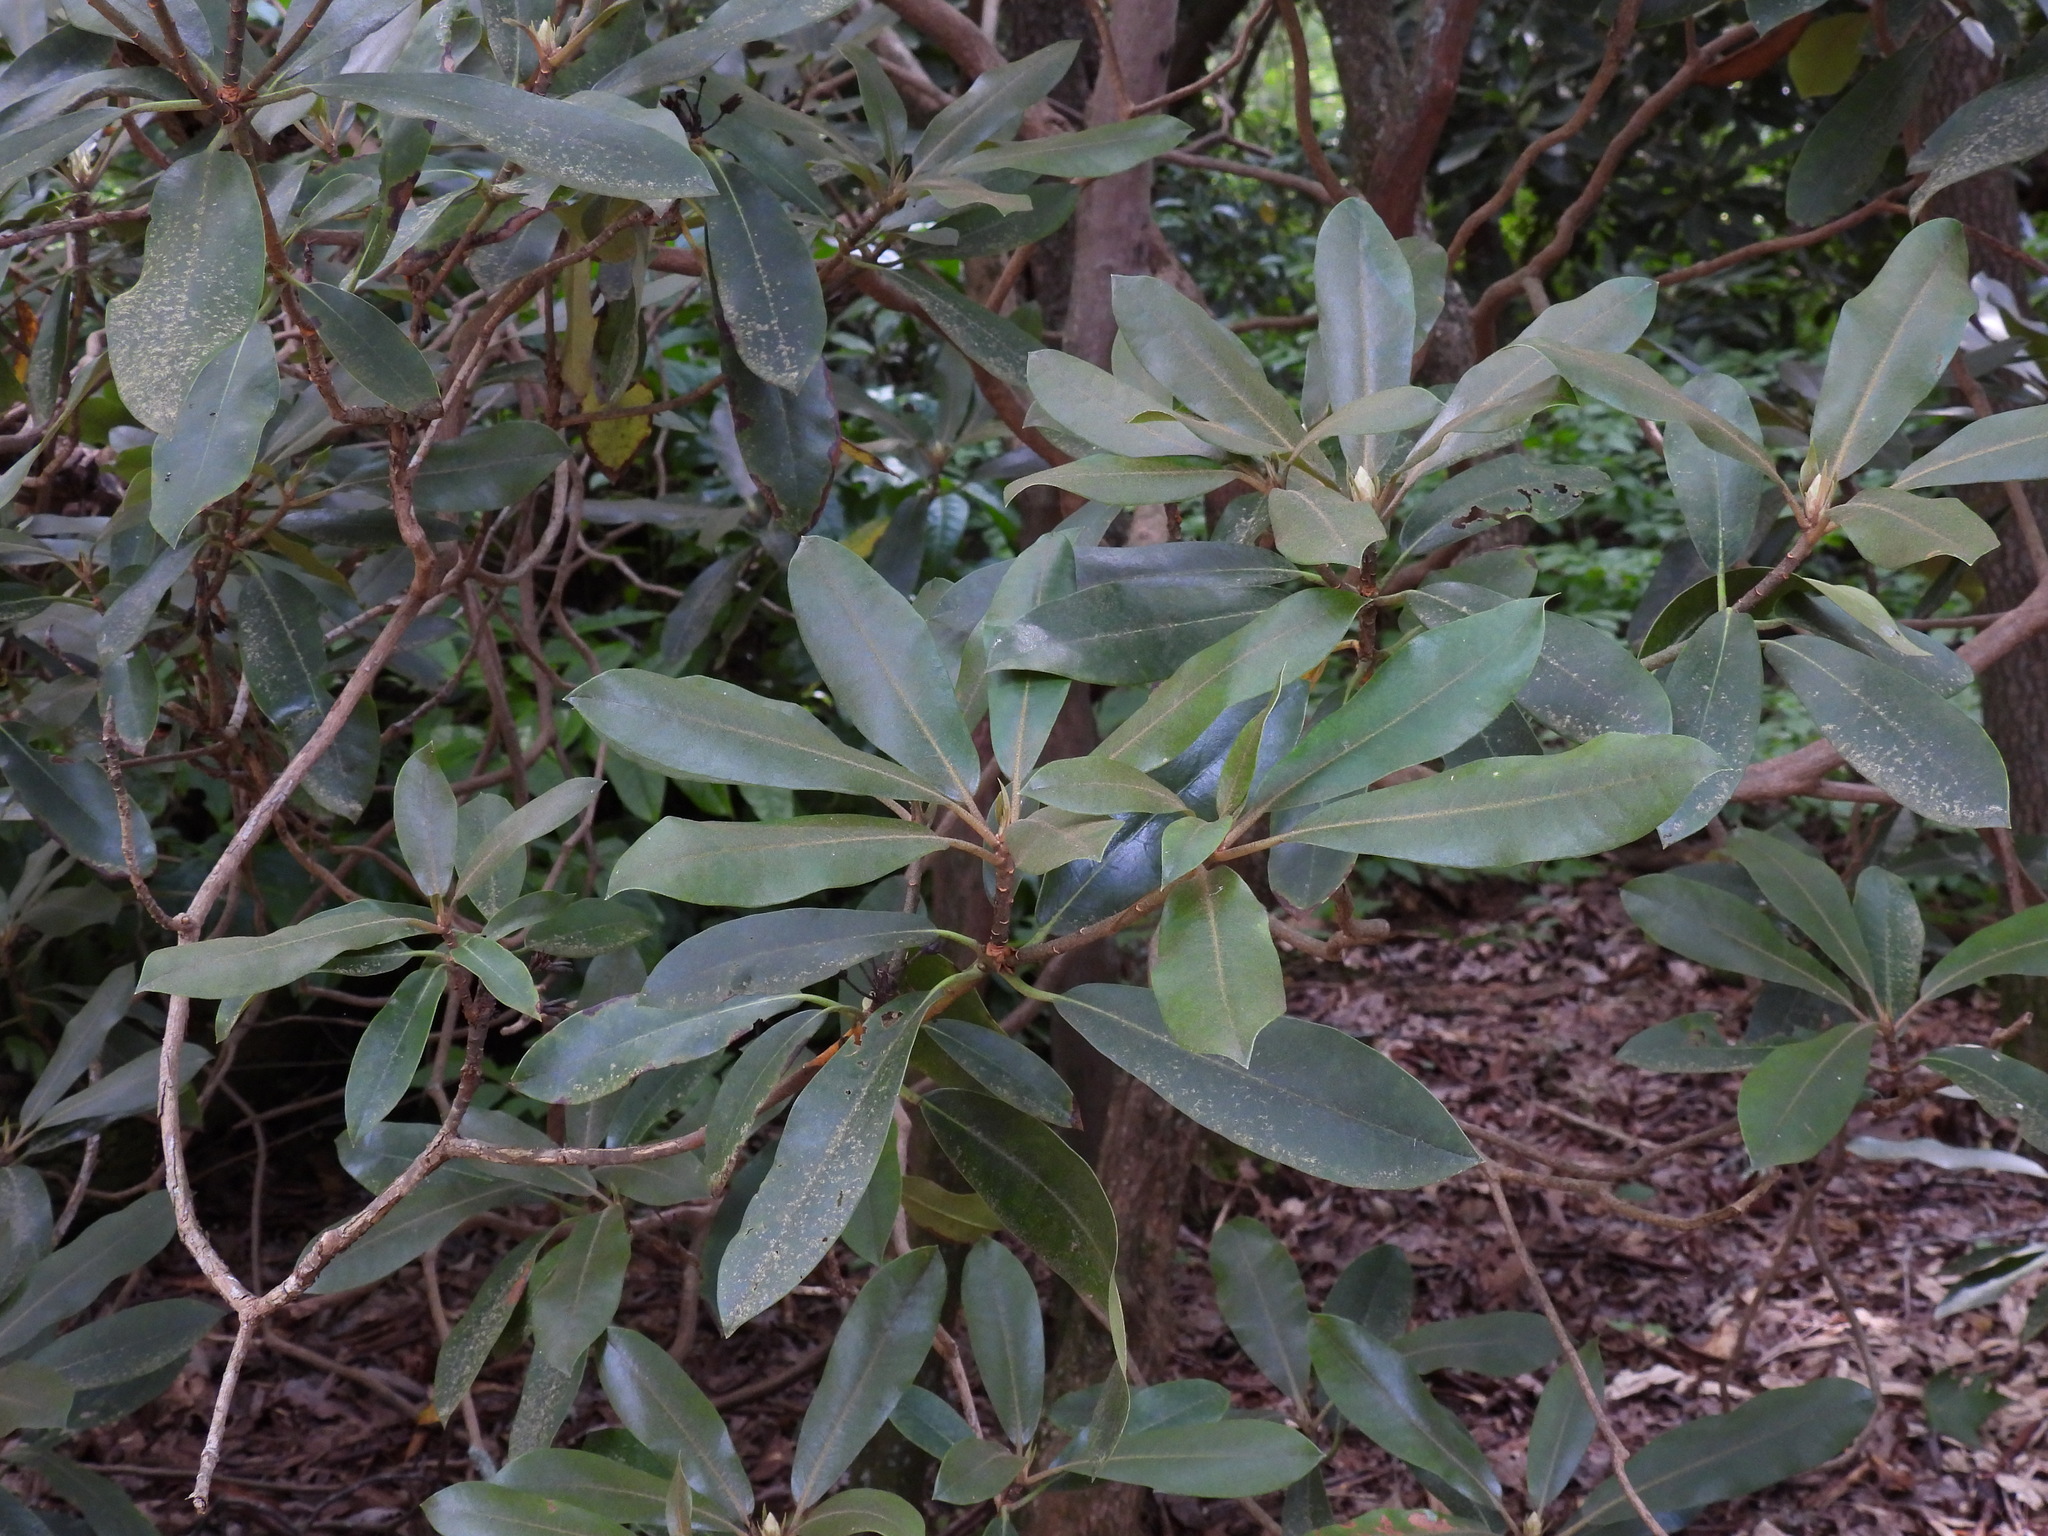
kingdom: Plantae
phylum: Tracheophyta
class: Magnoliopsida
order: Ericales
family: Ericaceae
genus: Rhododendron
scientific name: Rhododendron maximum
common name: Great rhododendron
